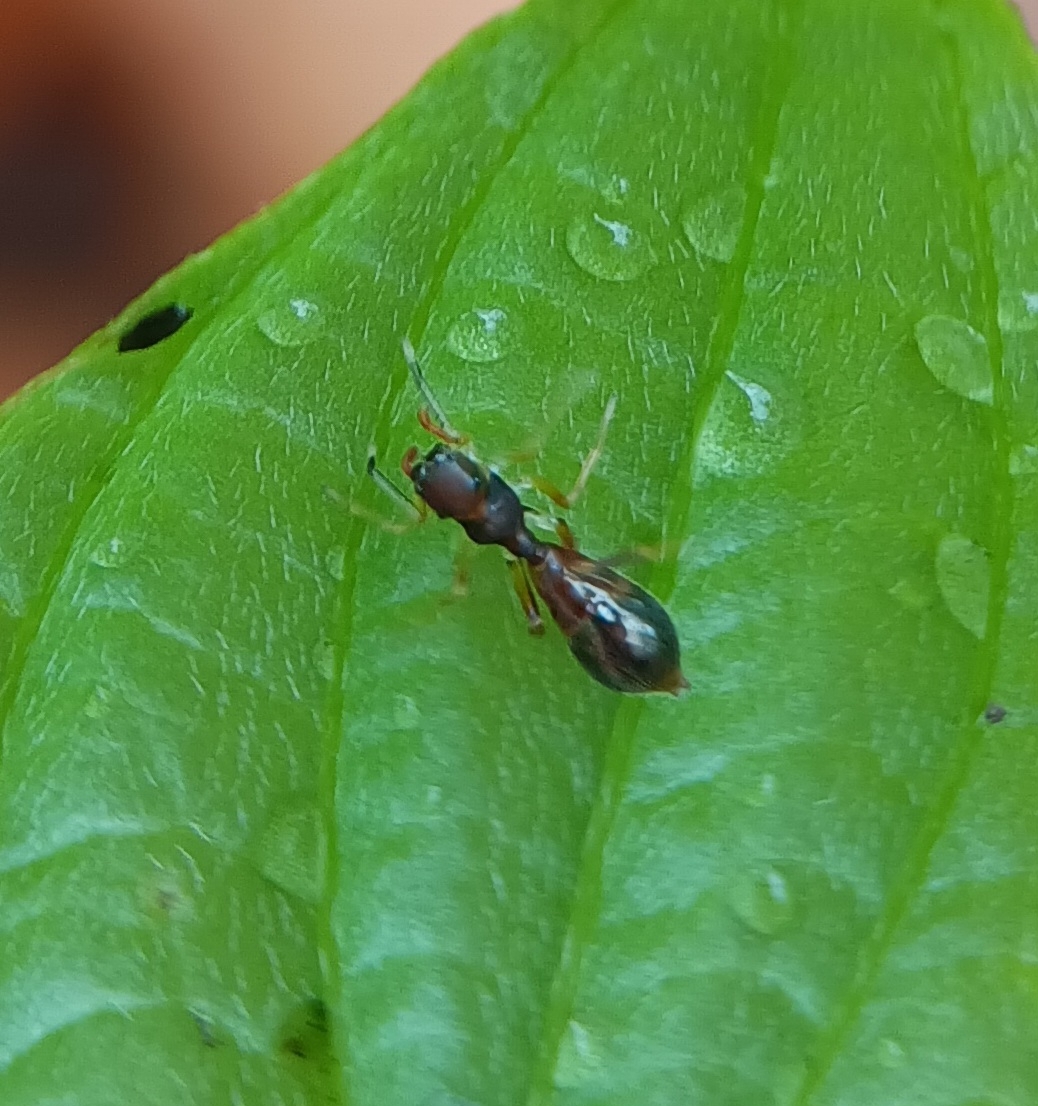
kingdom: Animalia
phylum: Arthropoda
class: Arachnida
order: Araneae
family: Salticidae
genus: Synemosyna
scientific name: Synemosyna formica
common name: Slender ant-mimic jumping spider
